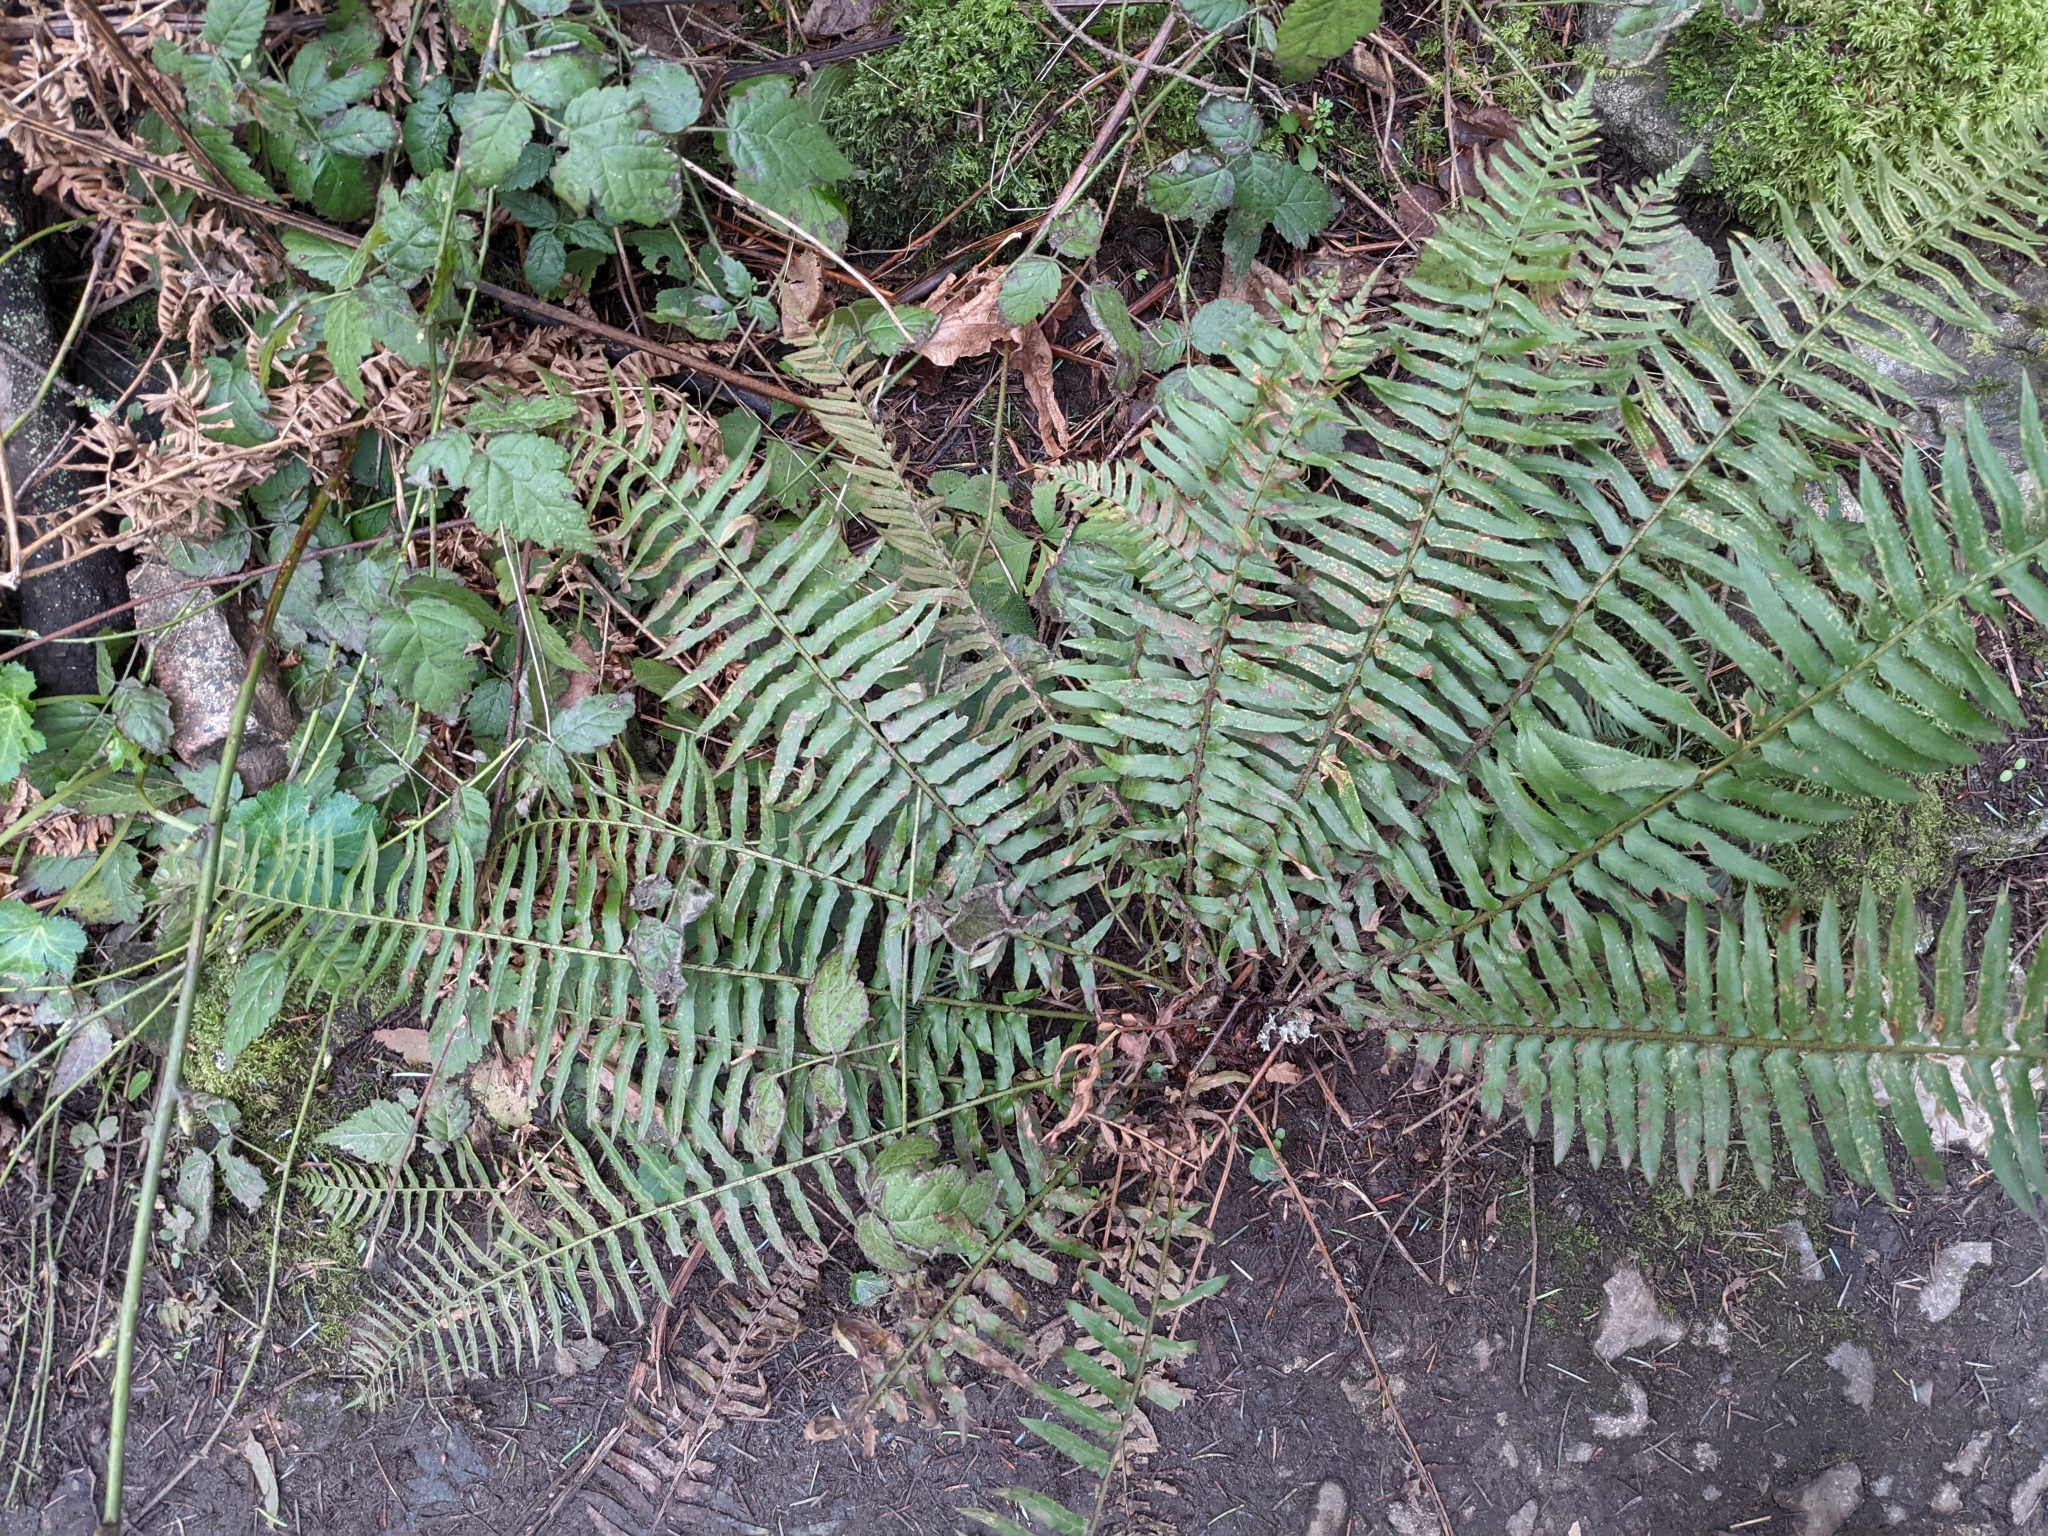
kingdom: Plantae
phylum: Tracheophyta
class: Polypodiopsida
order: Polypodiales
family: Dryopteridaceae
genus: Polystichum
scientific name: Polystichum munitum
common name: Western sword-fern
